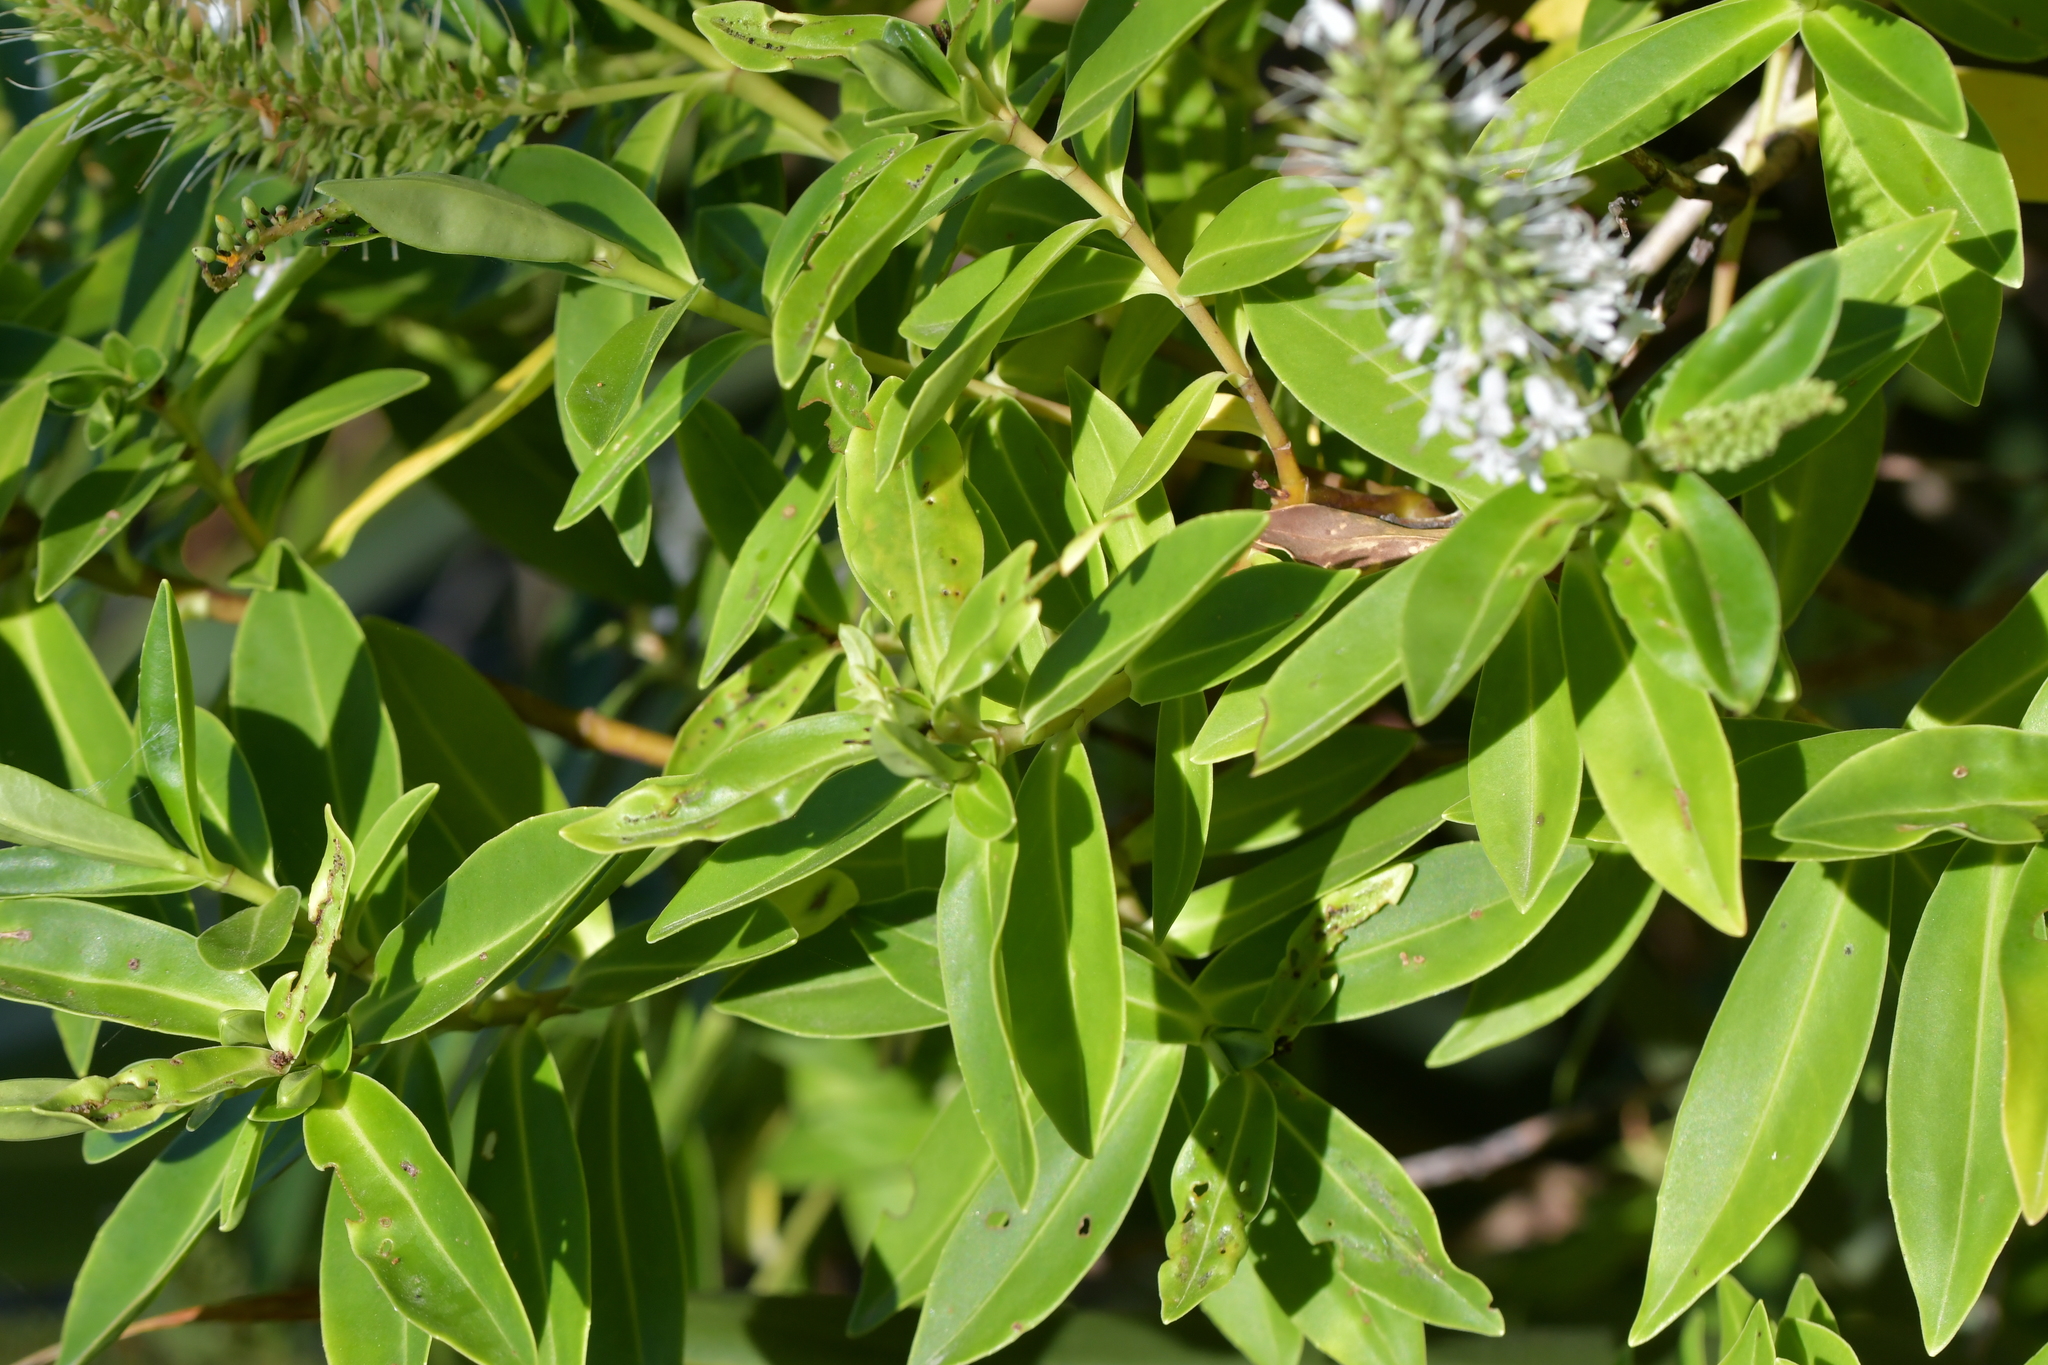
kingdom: Plantae
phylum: Tracheophyta
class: Magnoliopsida
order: Lamiales
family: Plantaginaceae
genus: Veronica
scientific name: Veronica stricta
